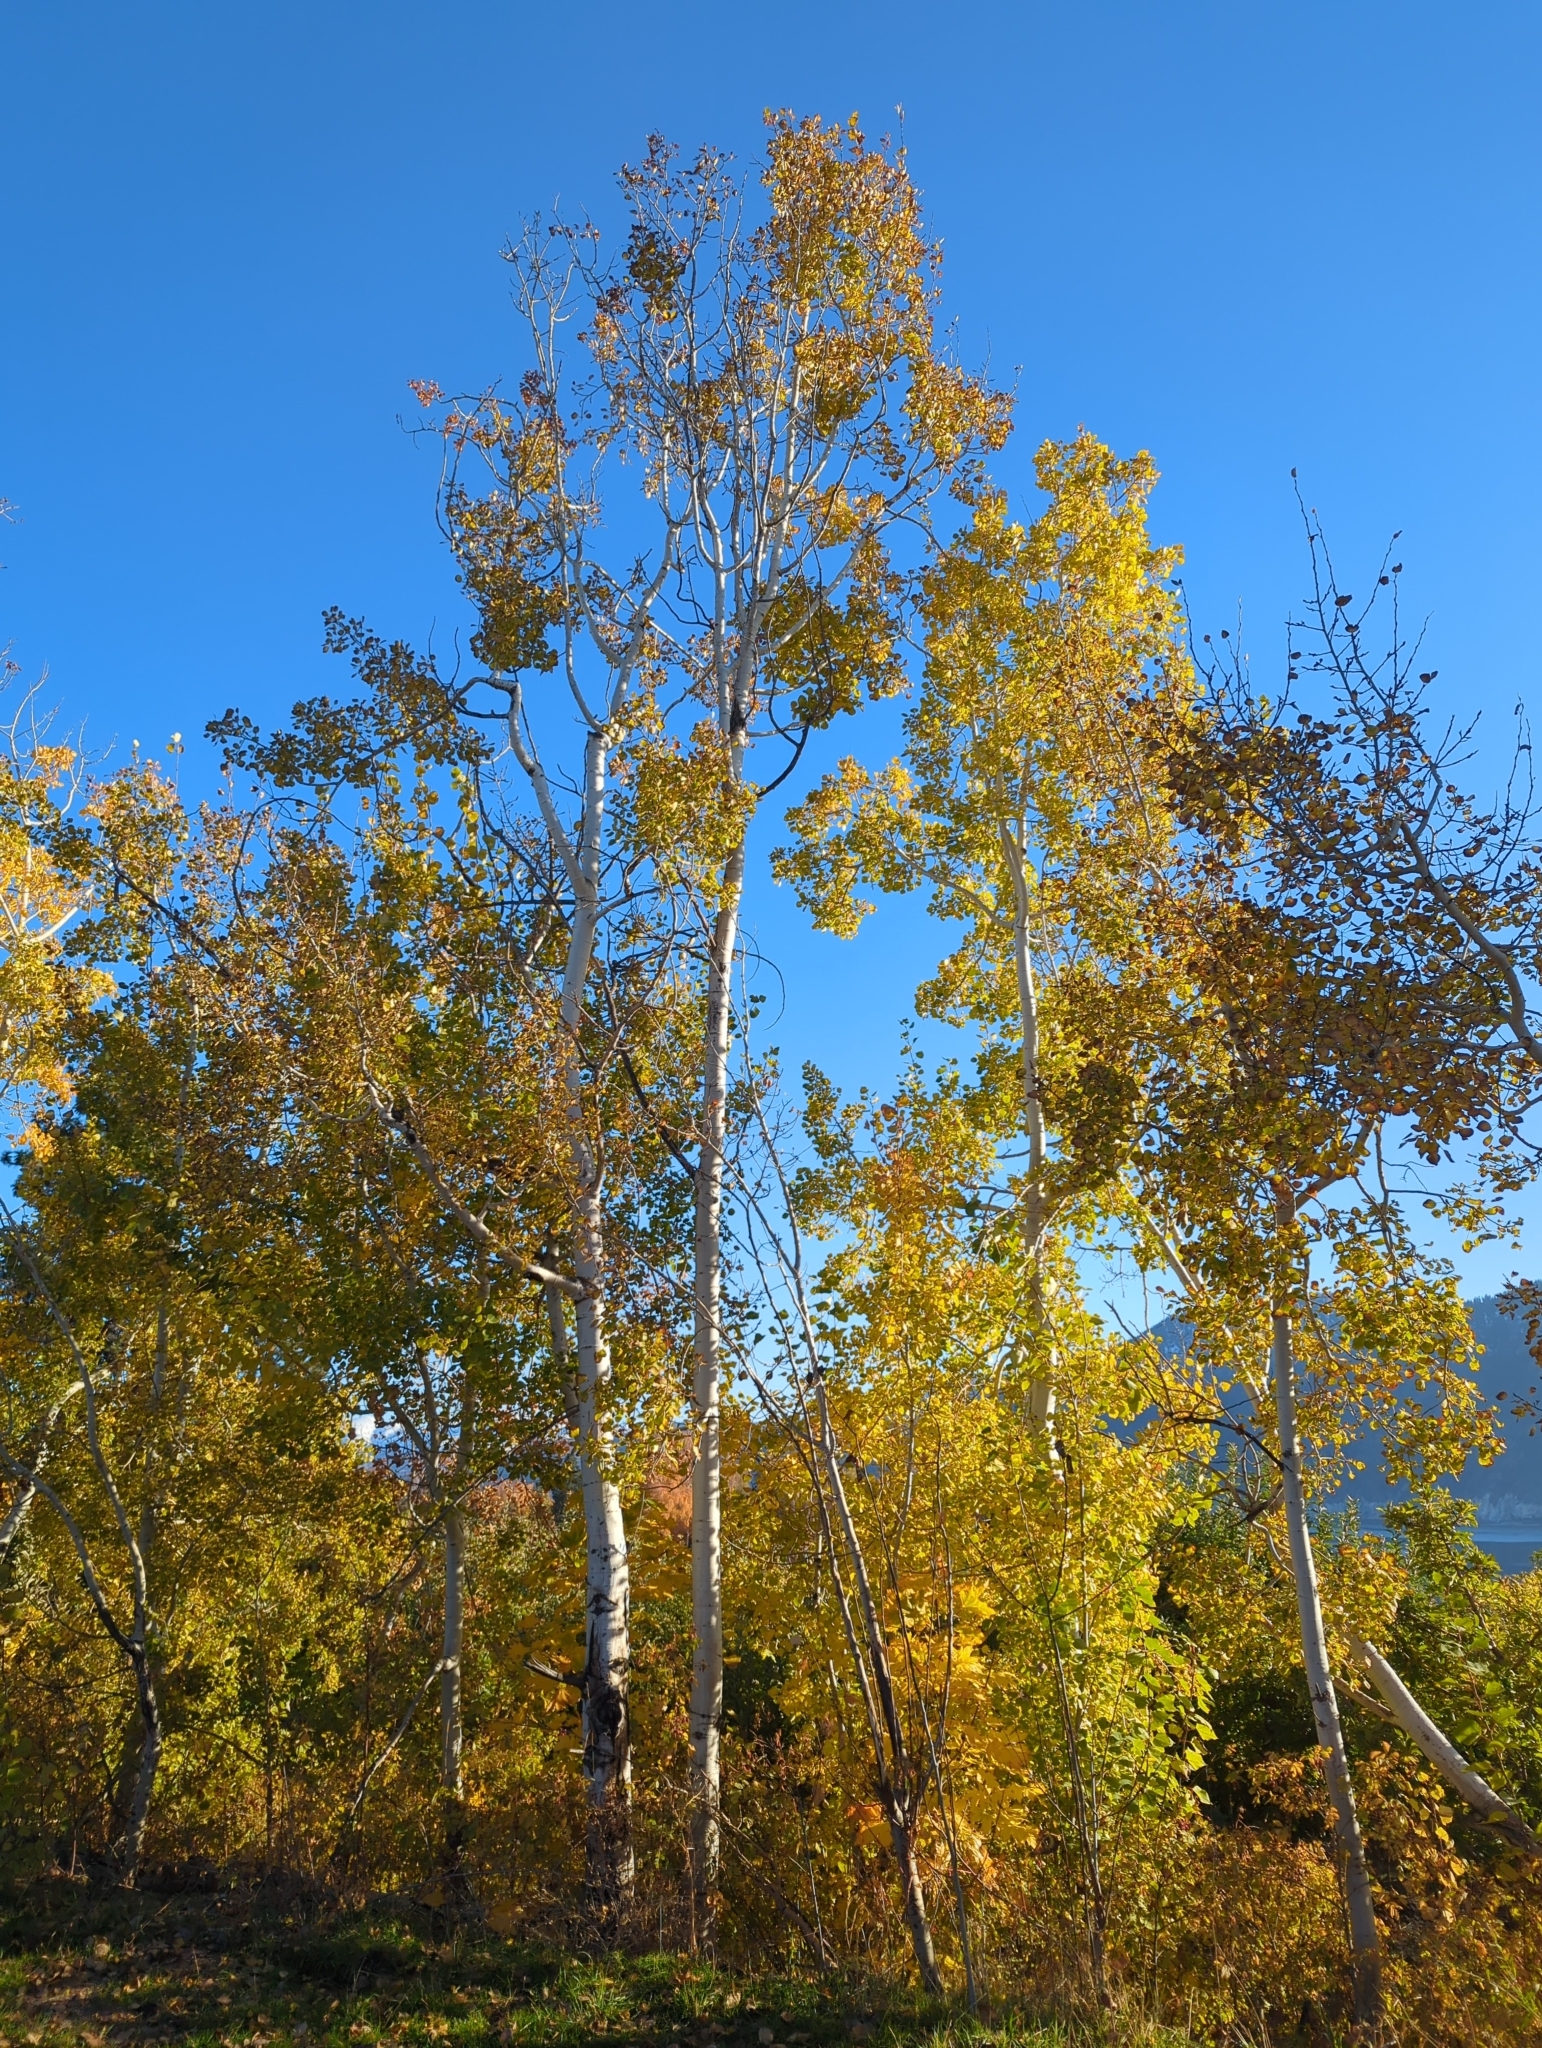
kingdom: Plantae
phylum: Tracheophyta
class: Magnoliopsida
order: Malpighiales
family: Salicaceae
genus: Populus
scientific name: Populus tremuloides
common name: Quaking aspen
